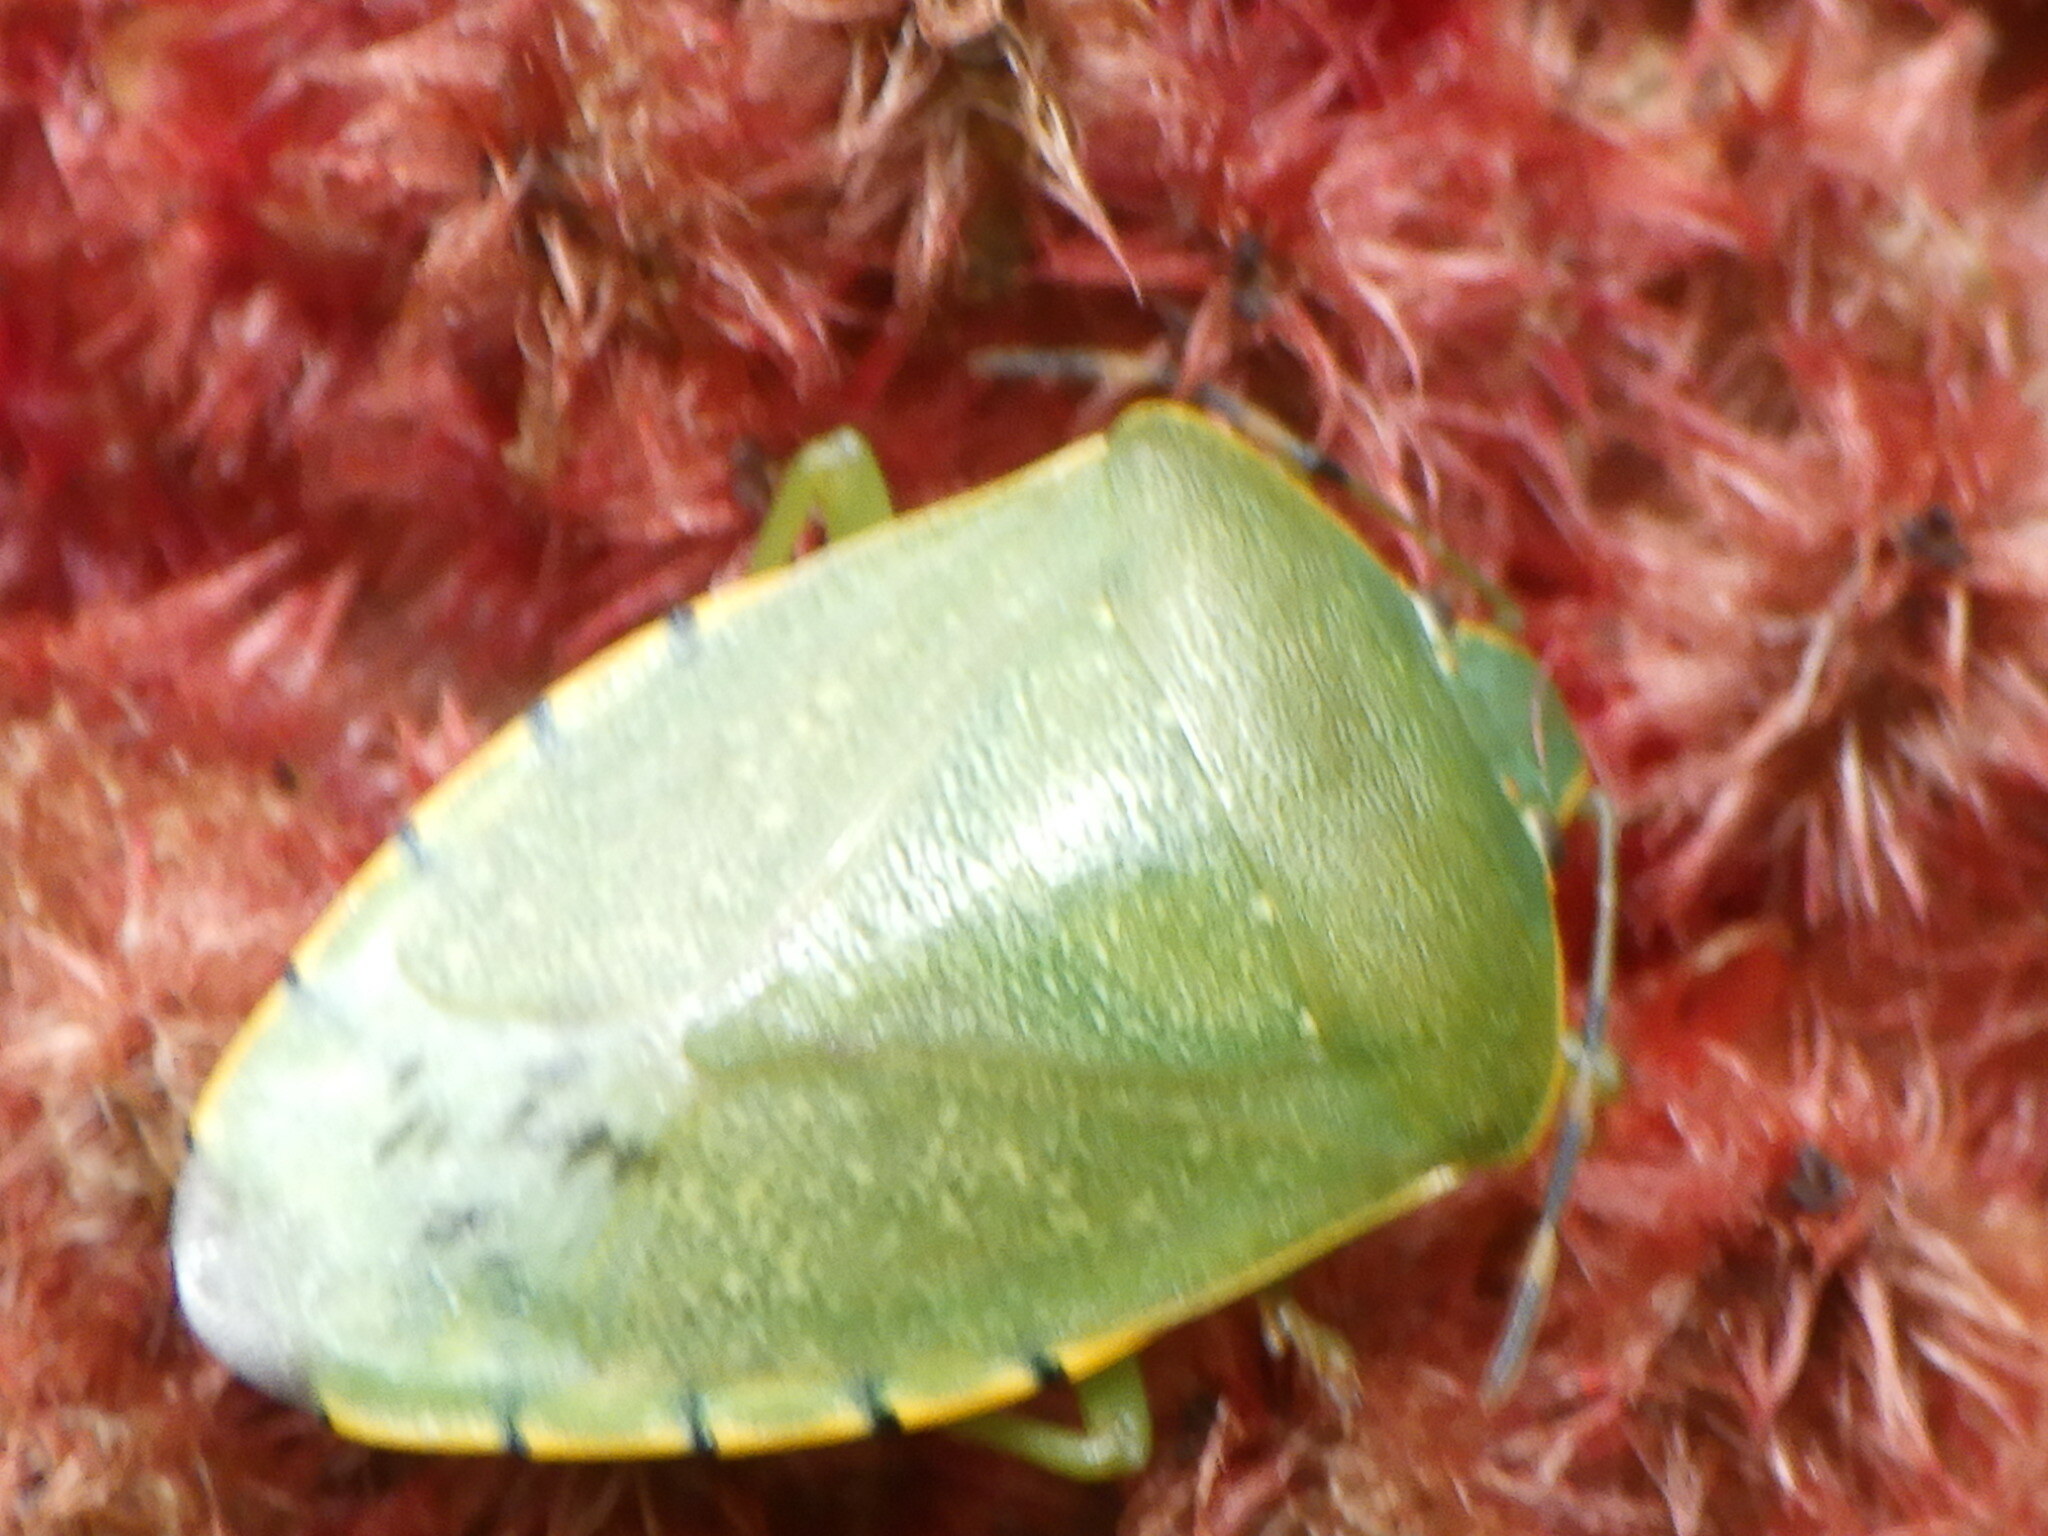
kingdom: Animalia
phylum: Arthropoda
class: Insecta
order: Hemiptera
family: Pentatomidae
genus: Chinavia
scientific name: Chinavia hilaris
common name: Green stink bug
